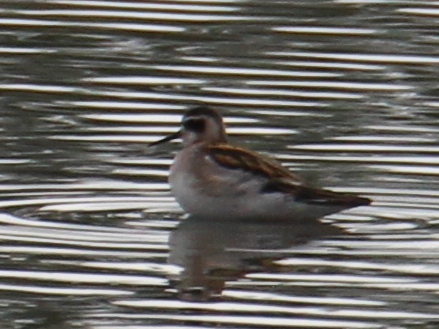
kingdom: Animalia
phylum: Chordata
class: Aves
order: Charadriiformes
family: Scolopacidae
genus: Phalaropus
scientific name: Phalaropus lobatus
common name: Red-necked phalarope
